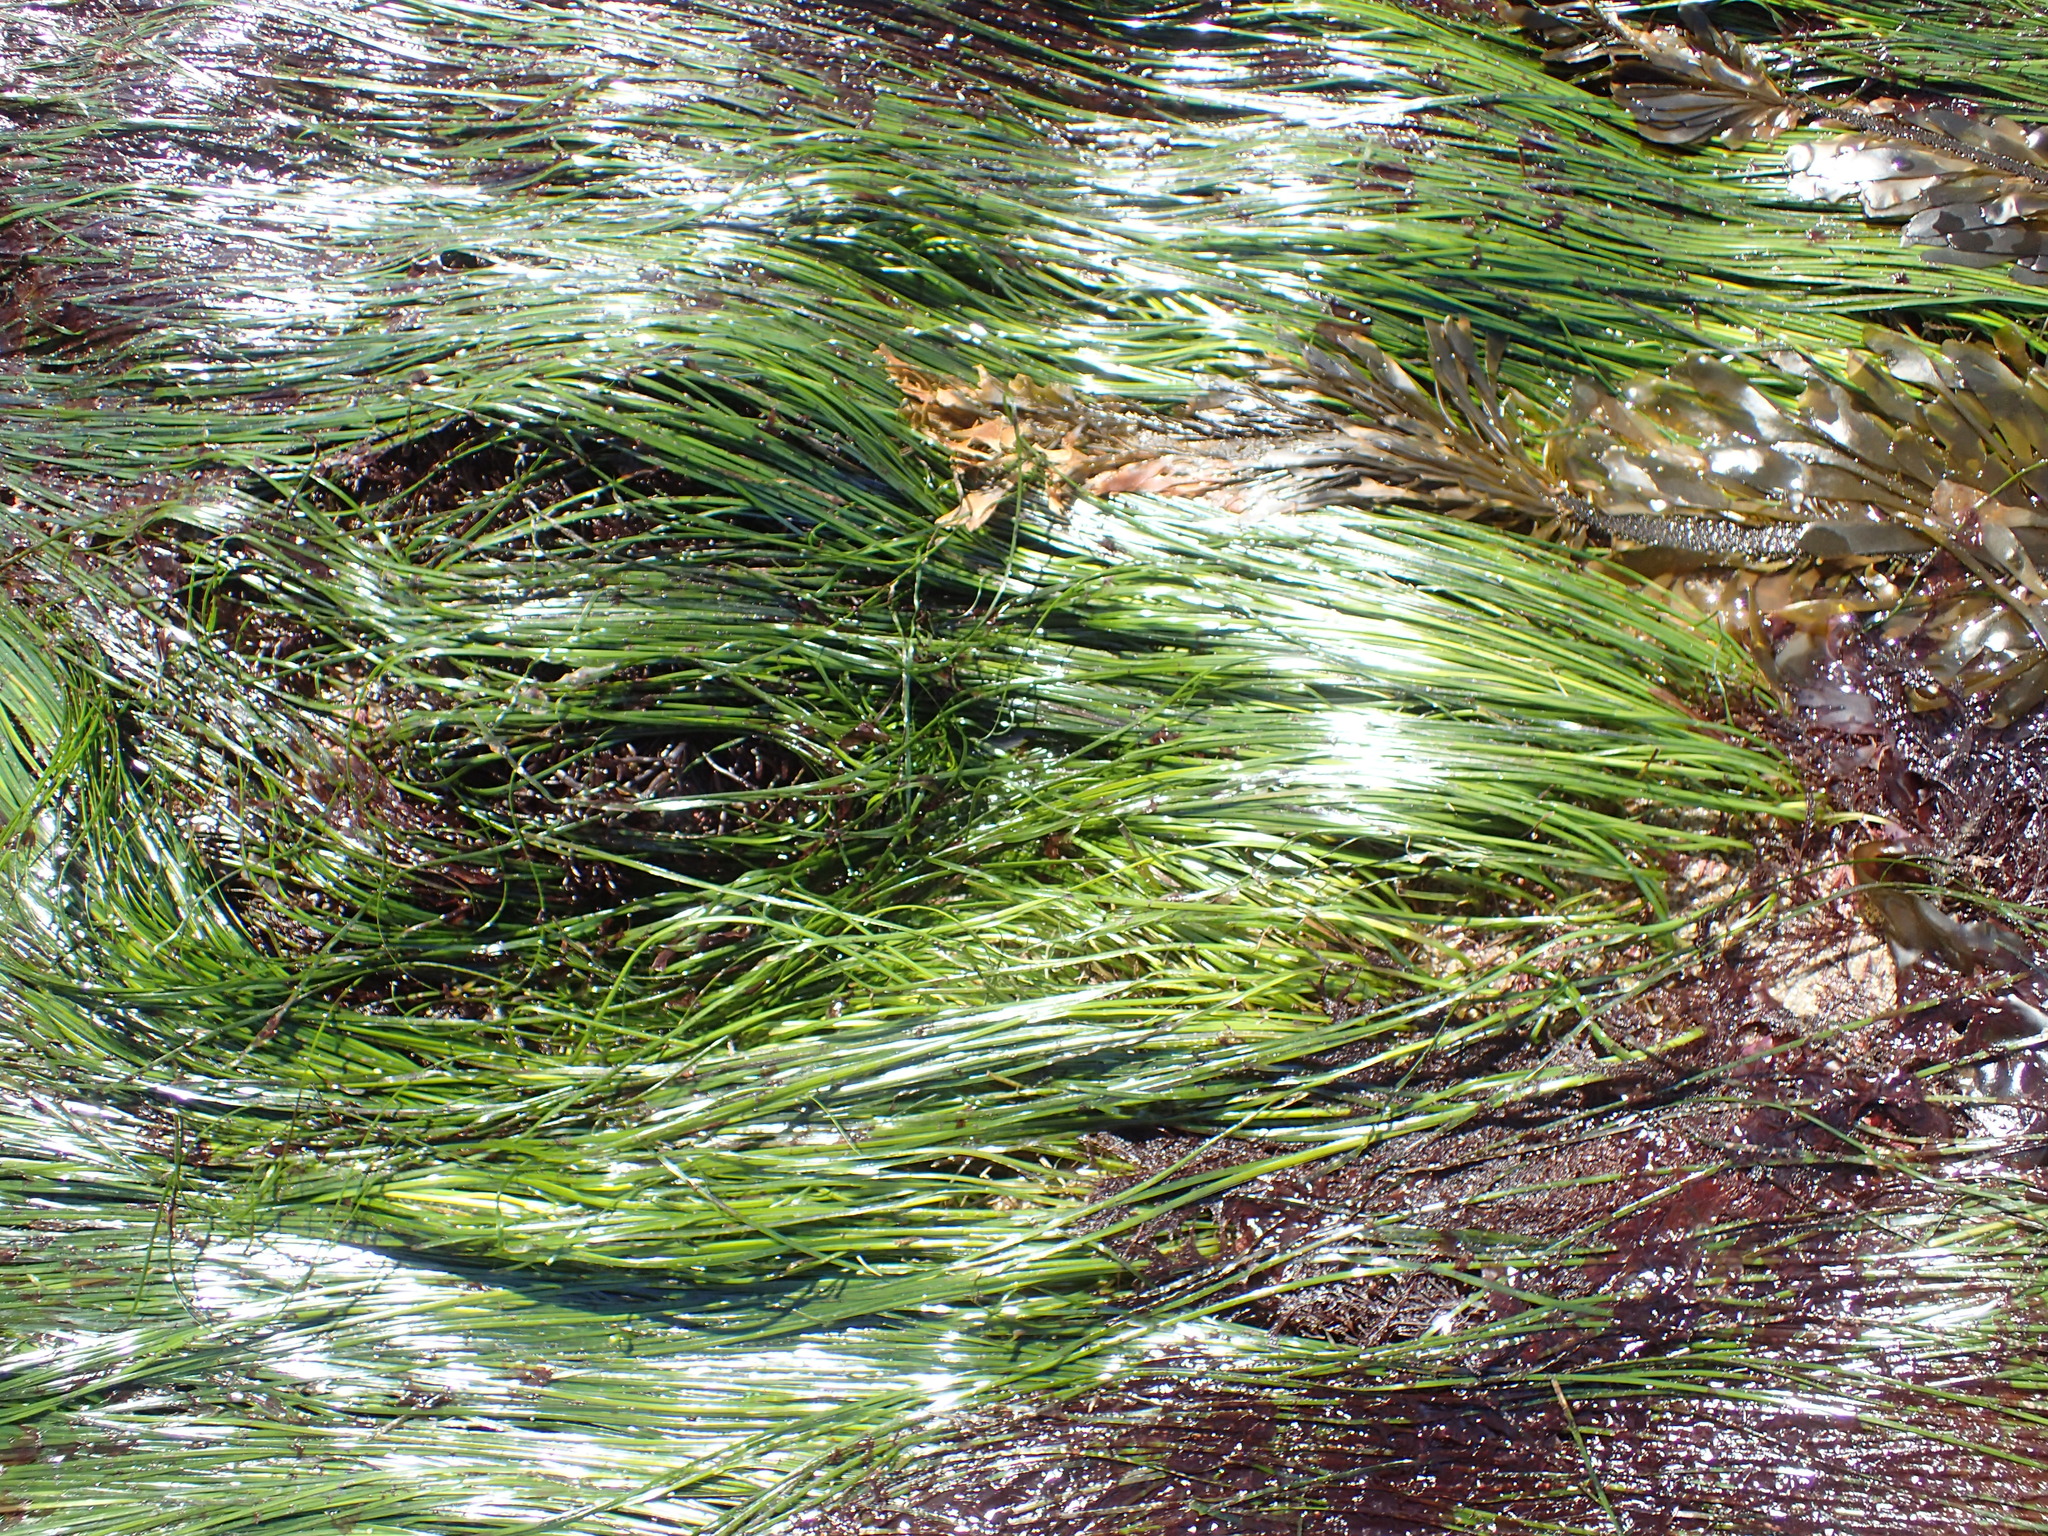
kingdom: Plantae
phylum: Tracheophyta
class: Liliopsida
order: Alismatales
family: Zosteraceae
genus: Phyllospadix
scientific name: Phyllospadix torreyi
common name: Surfgrass
